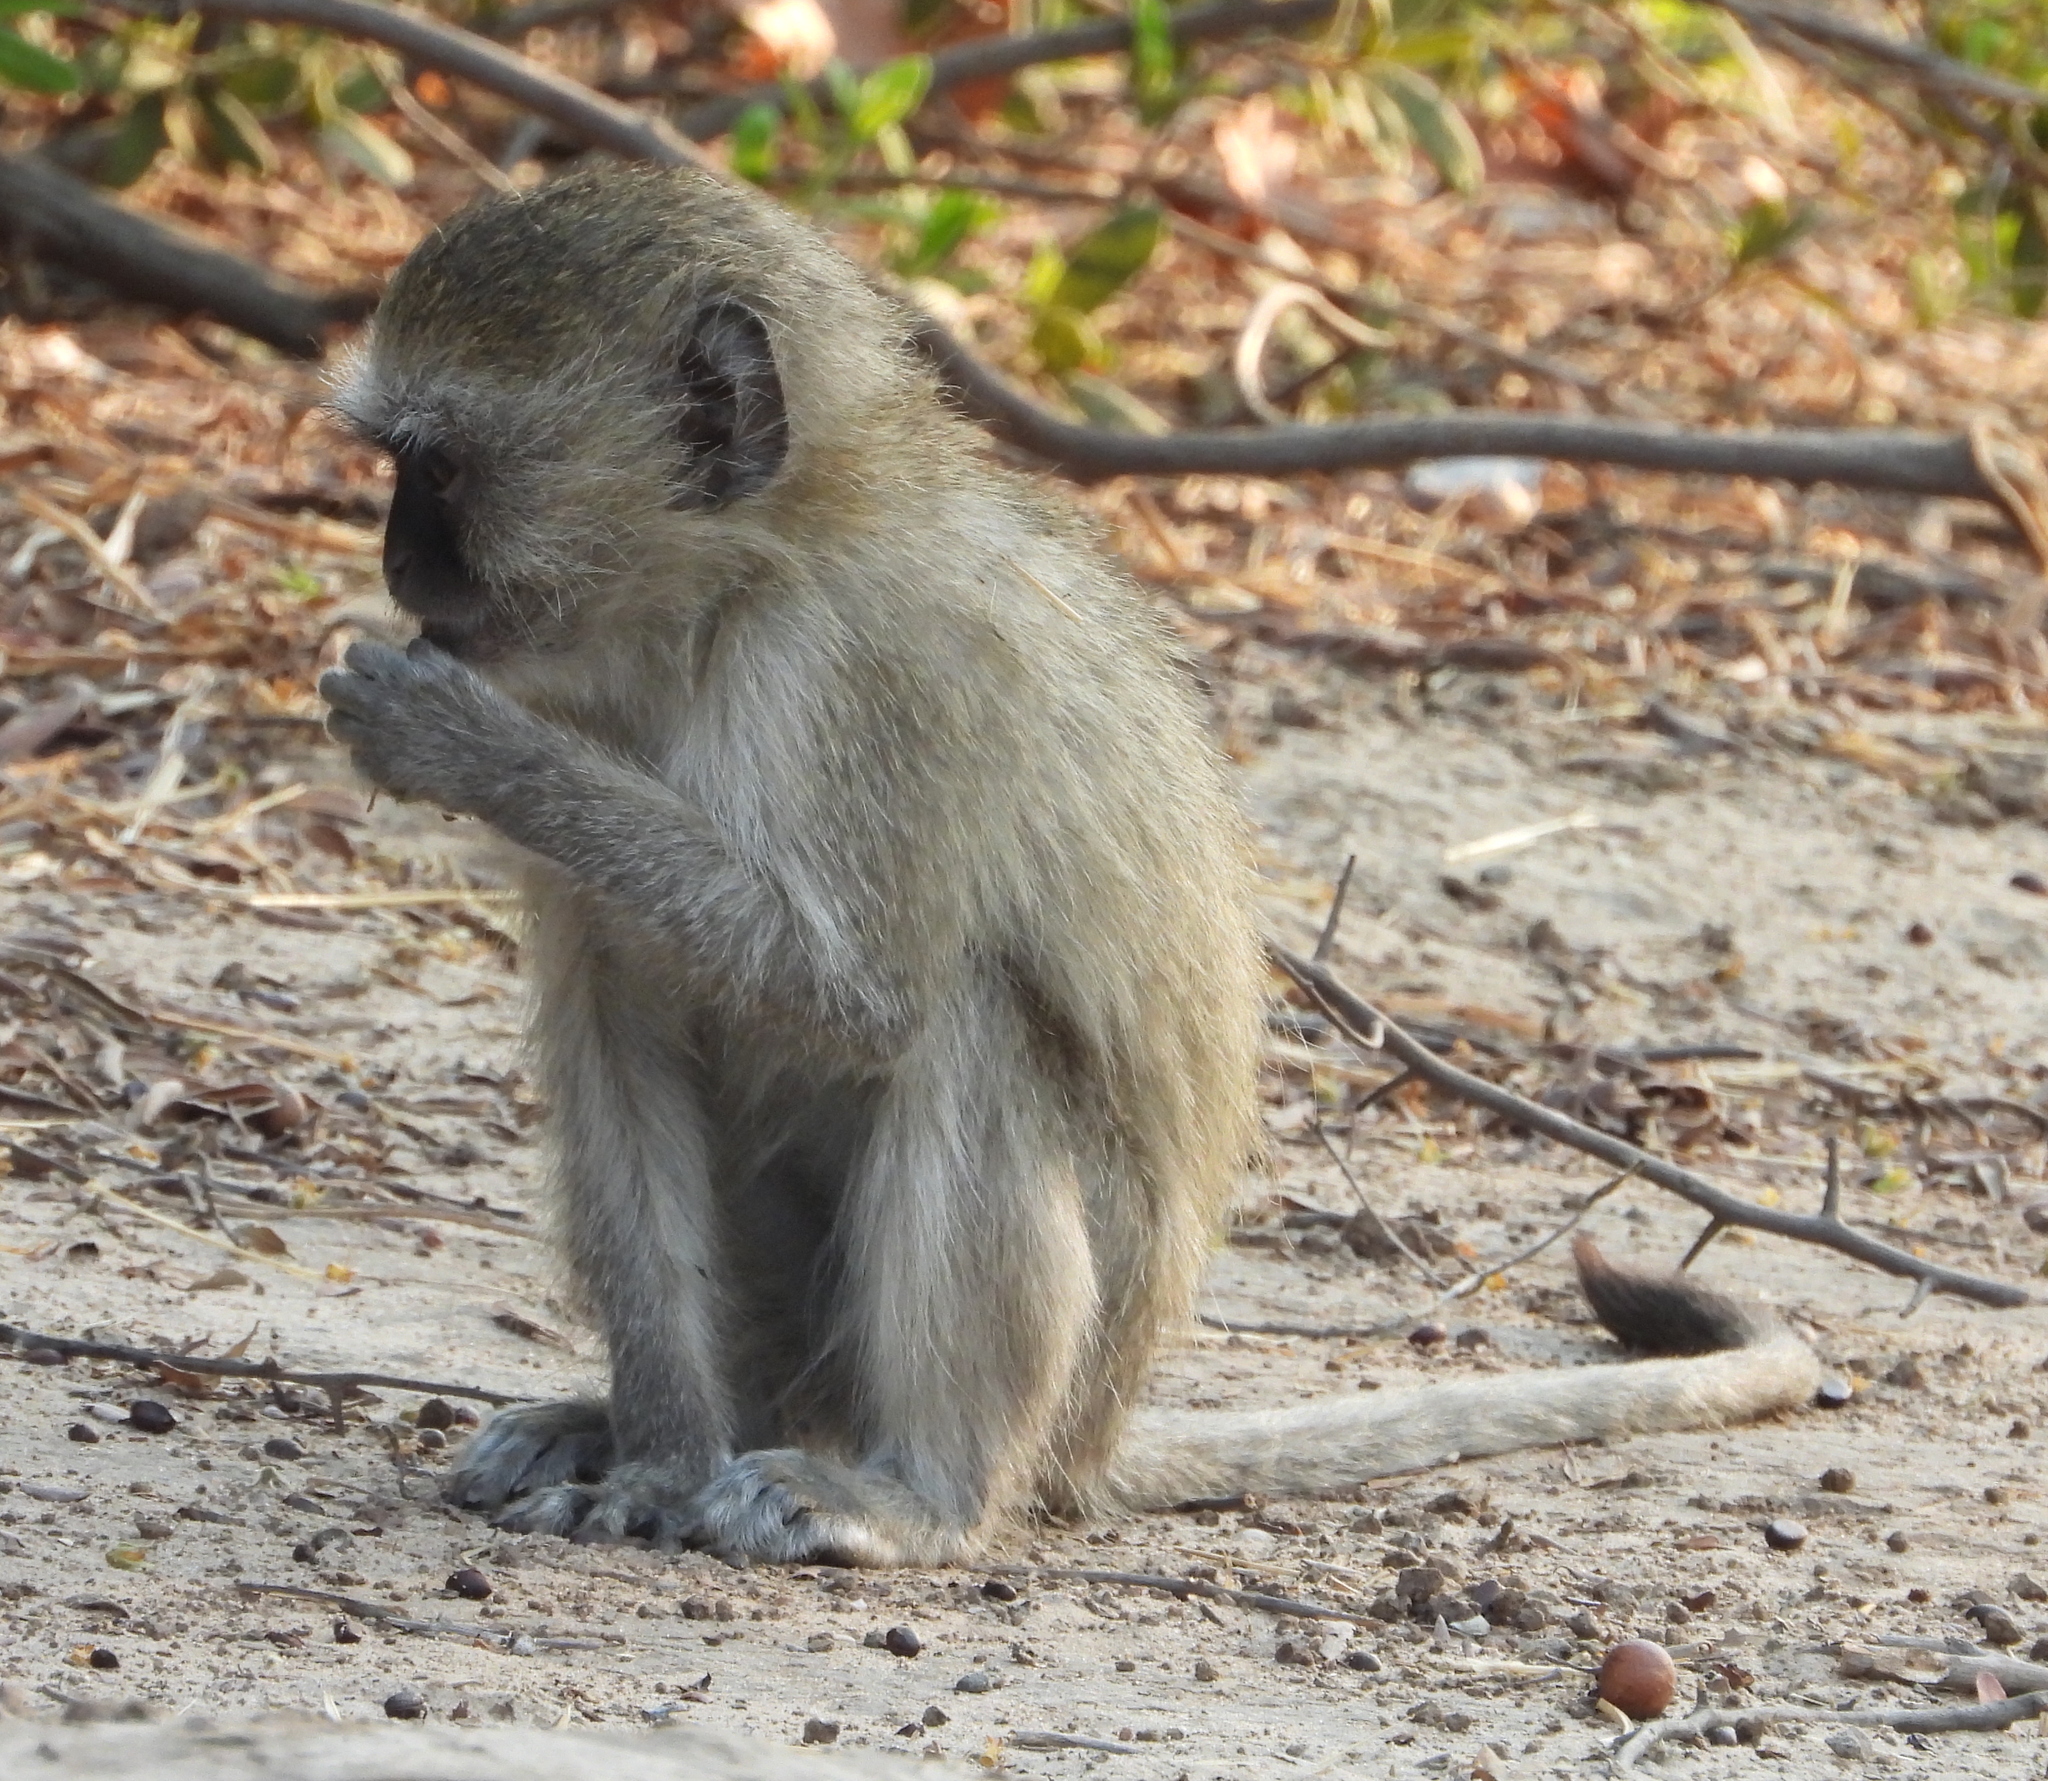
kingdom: Animalia
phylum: Chordata
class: Mammalia
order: Primates
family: Cercopithecidae
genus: Chlorocebus
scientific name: Chlorocebus pygerythrus
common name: Vervet monkey
